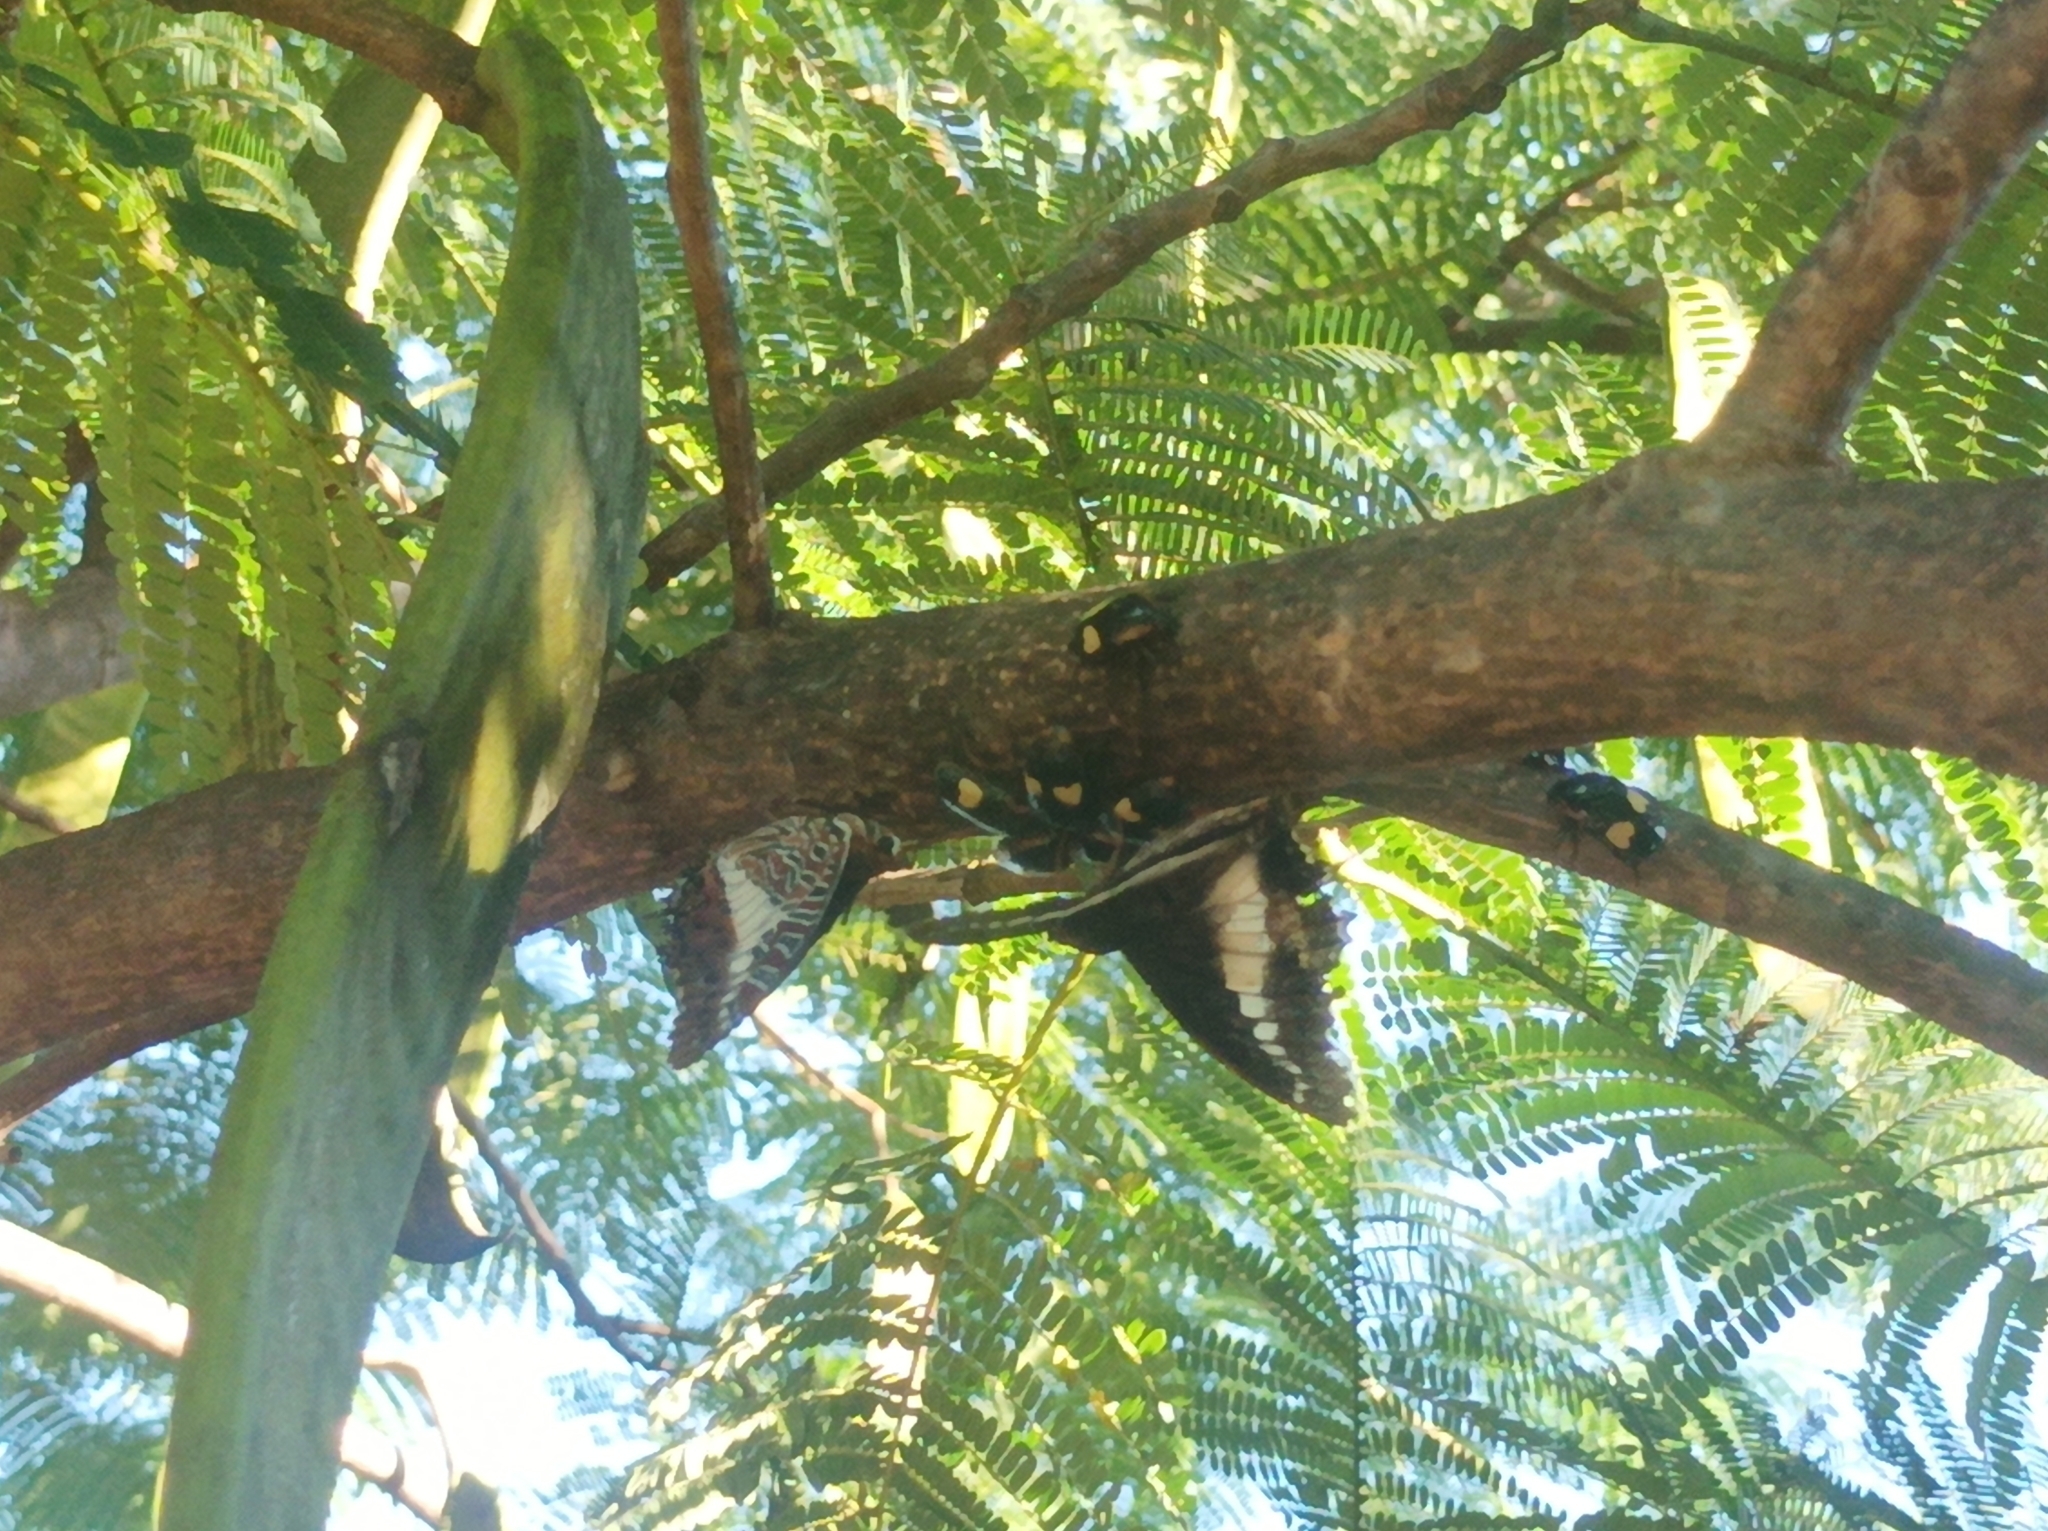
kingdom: Animalia
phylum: Arthropoda
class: Insecta
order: Lepidoptera
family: Nymphalidae
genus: Charaxes
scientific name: Charaxes brutus
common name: White-barred charaxes
